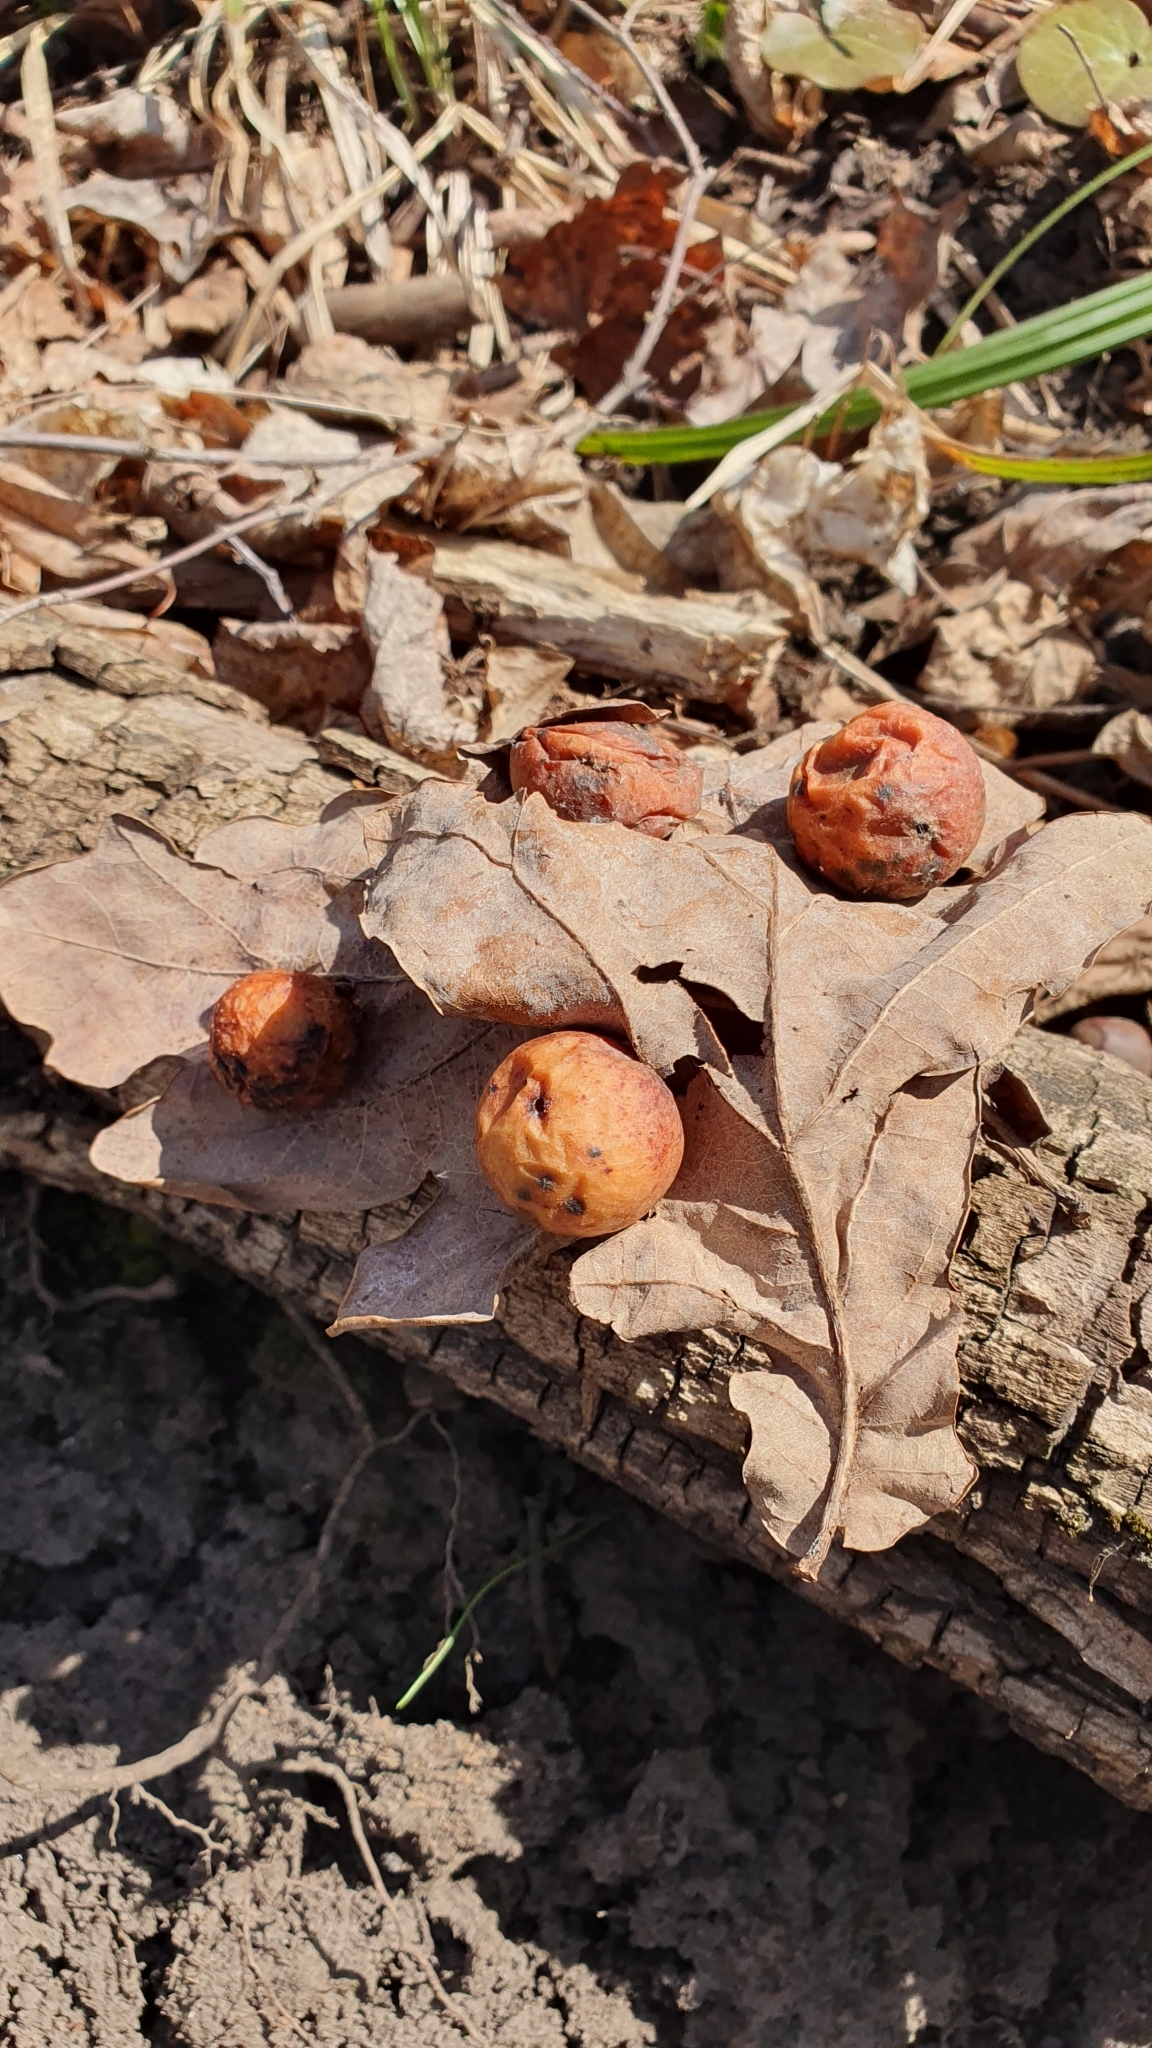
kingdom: Animalia
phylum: Arthropoda
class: Insecta
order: Hymenoptera
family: Cynipidae
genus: Cynips
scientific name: Cynips quercusfolii
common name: Cherry gall
